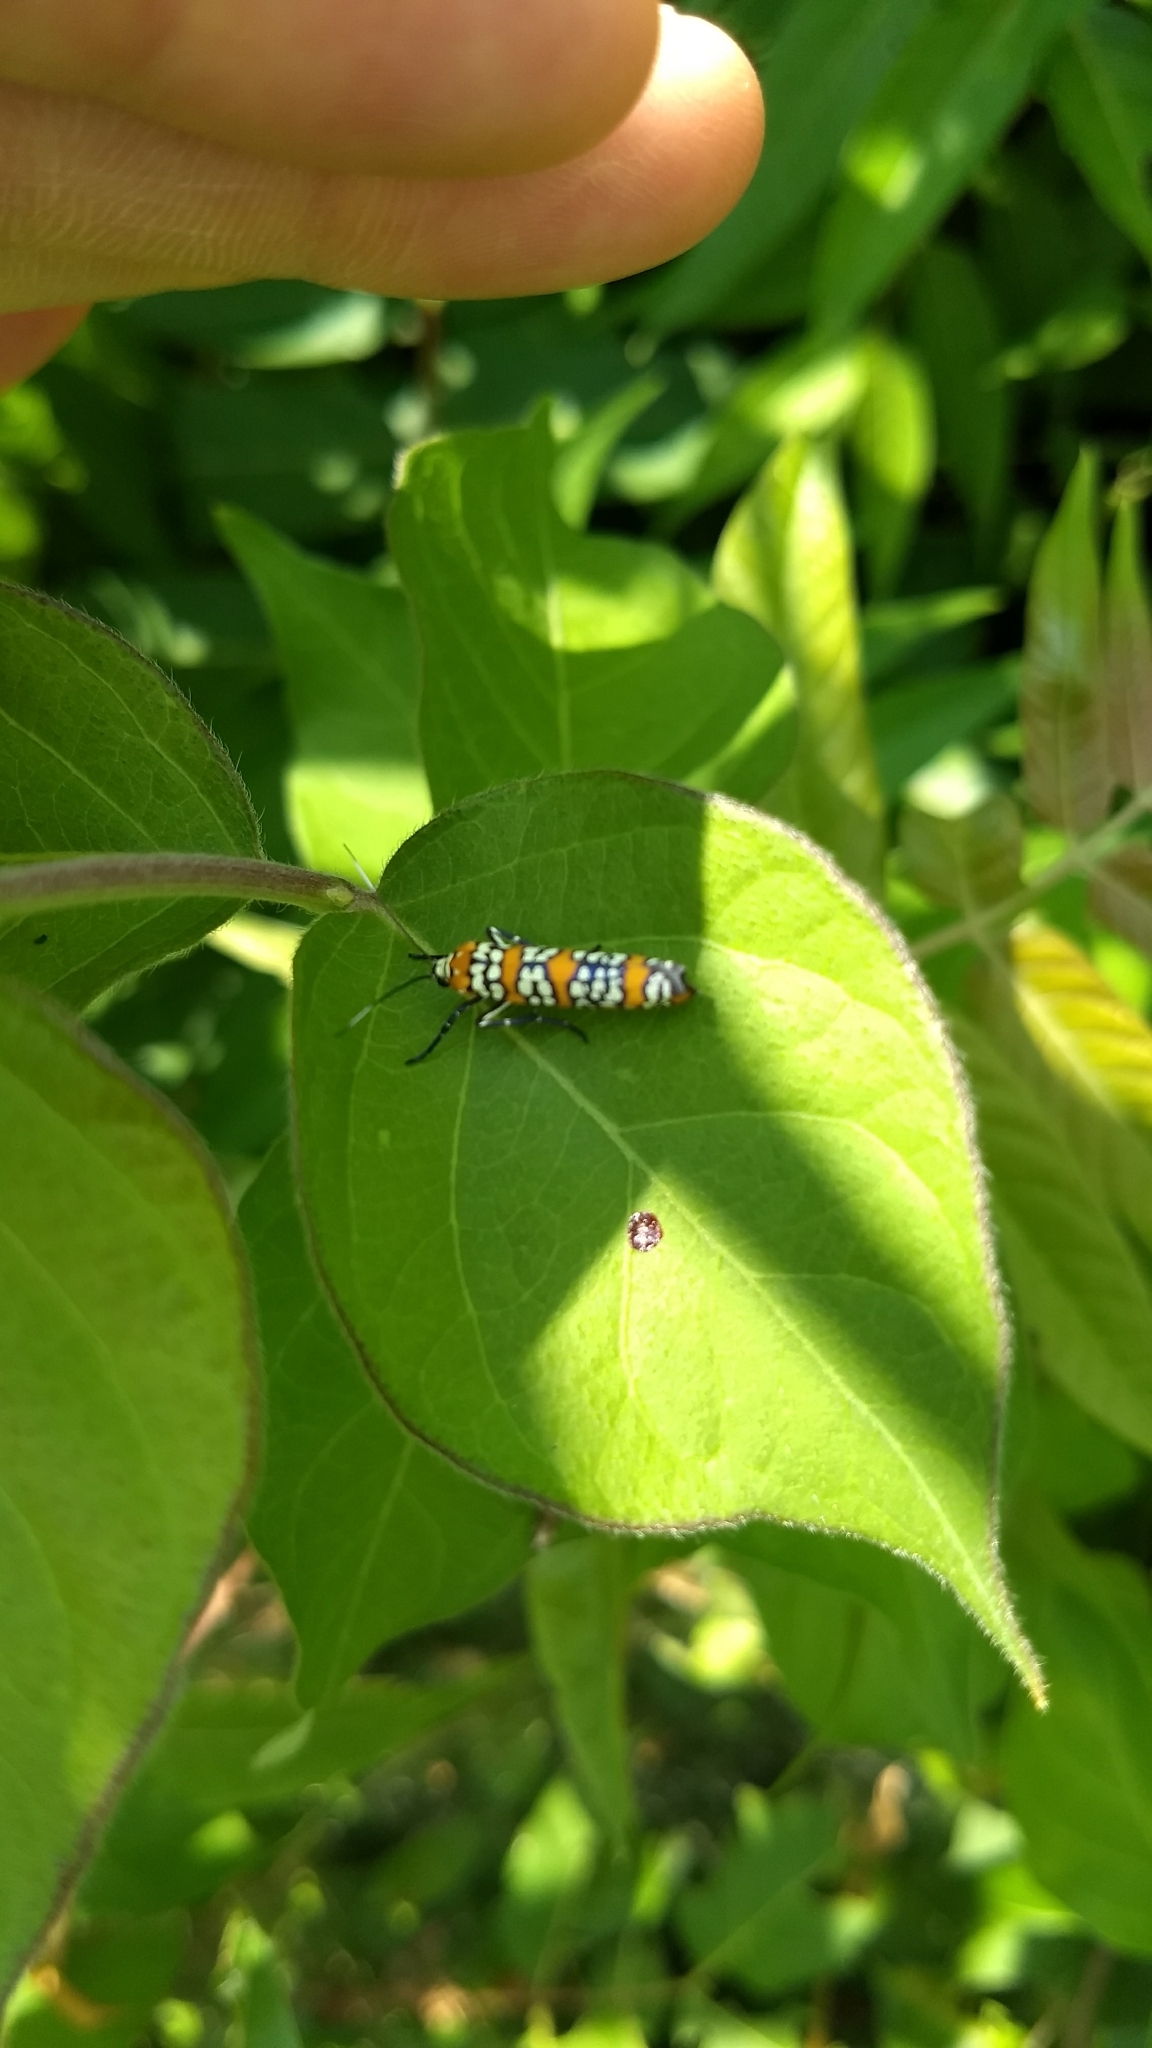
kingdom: Animalia
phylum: Arthropoda
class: Insecta
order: Lepidoptera
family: Attevidae
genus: Atteva
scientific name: Atteva punctella
